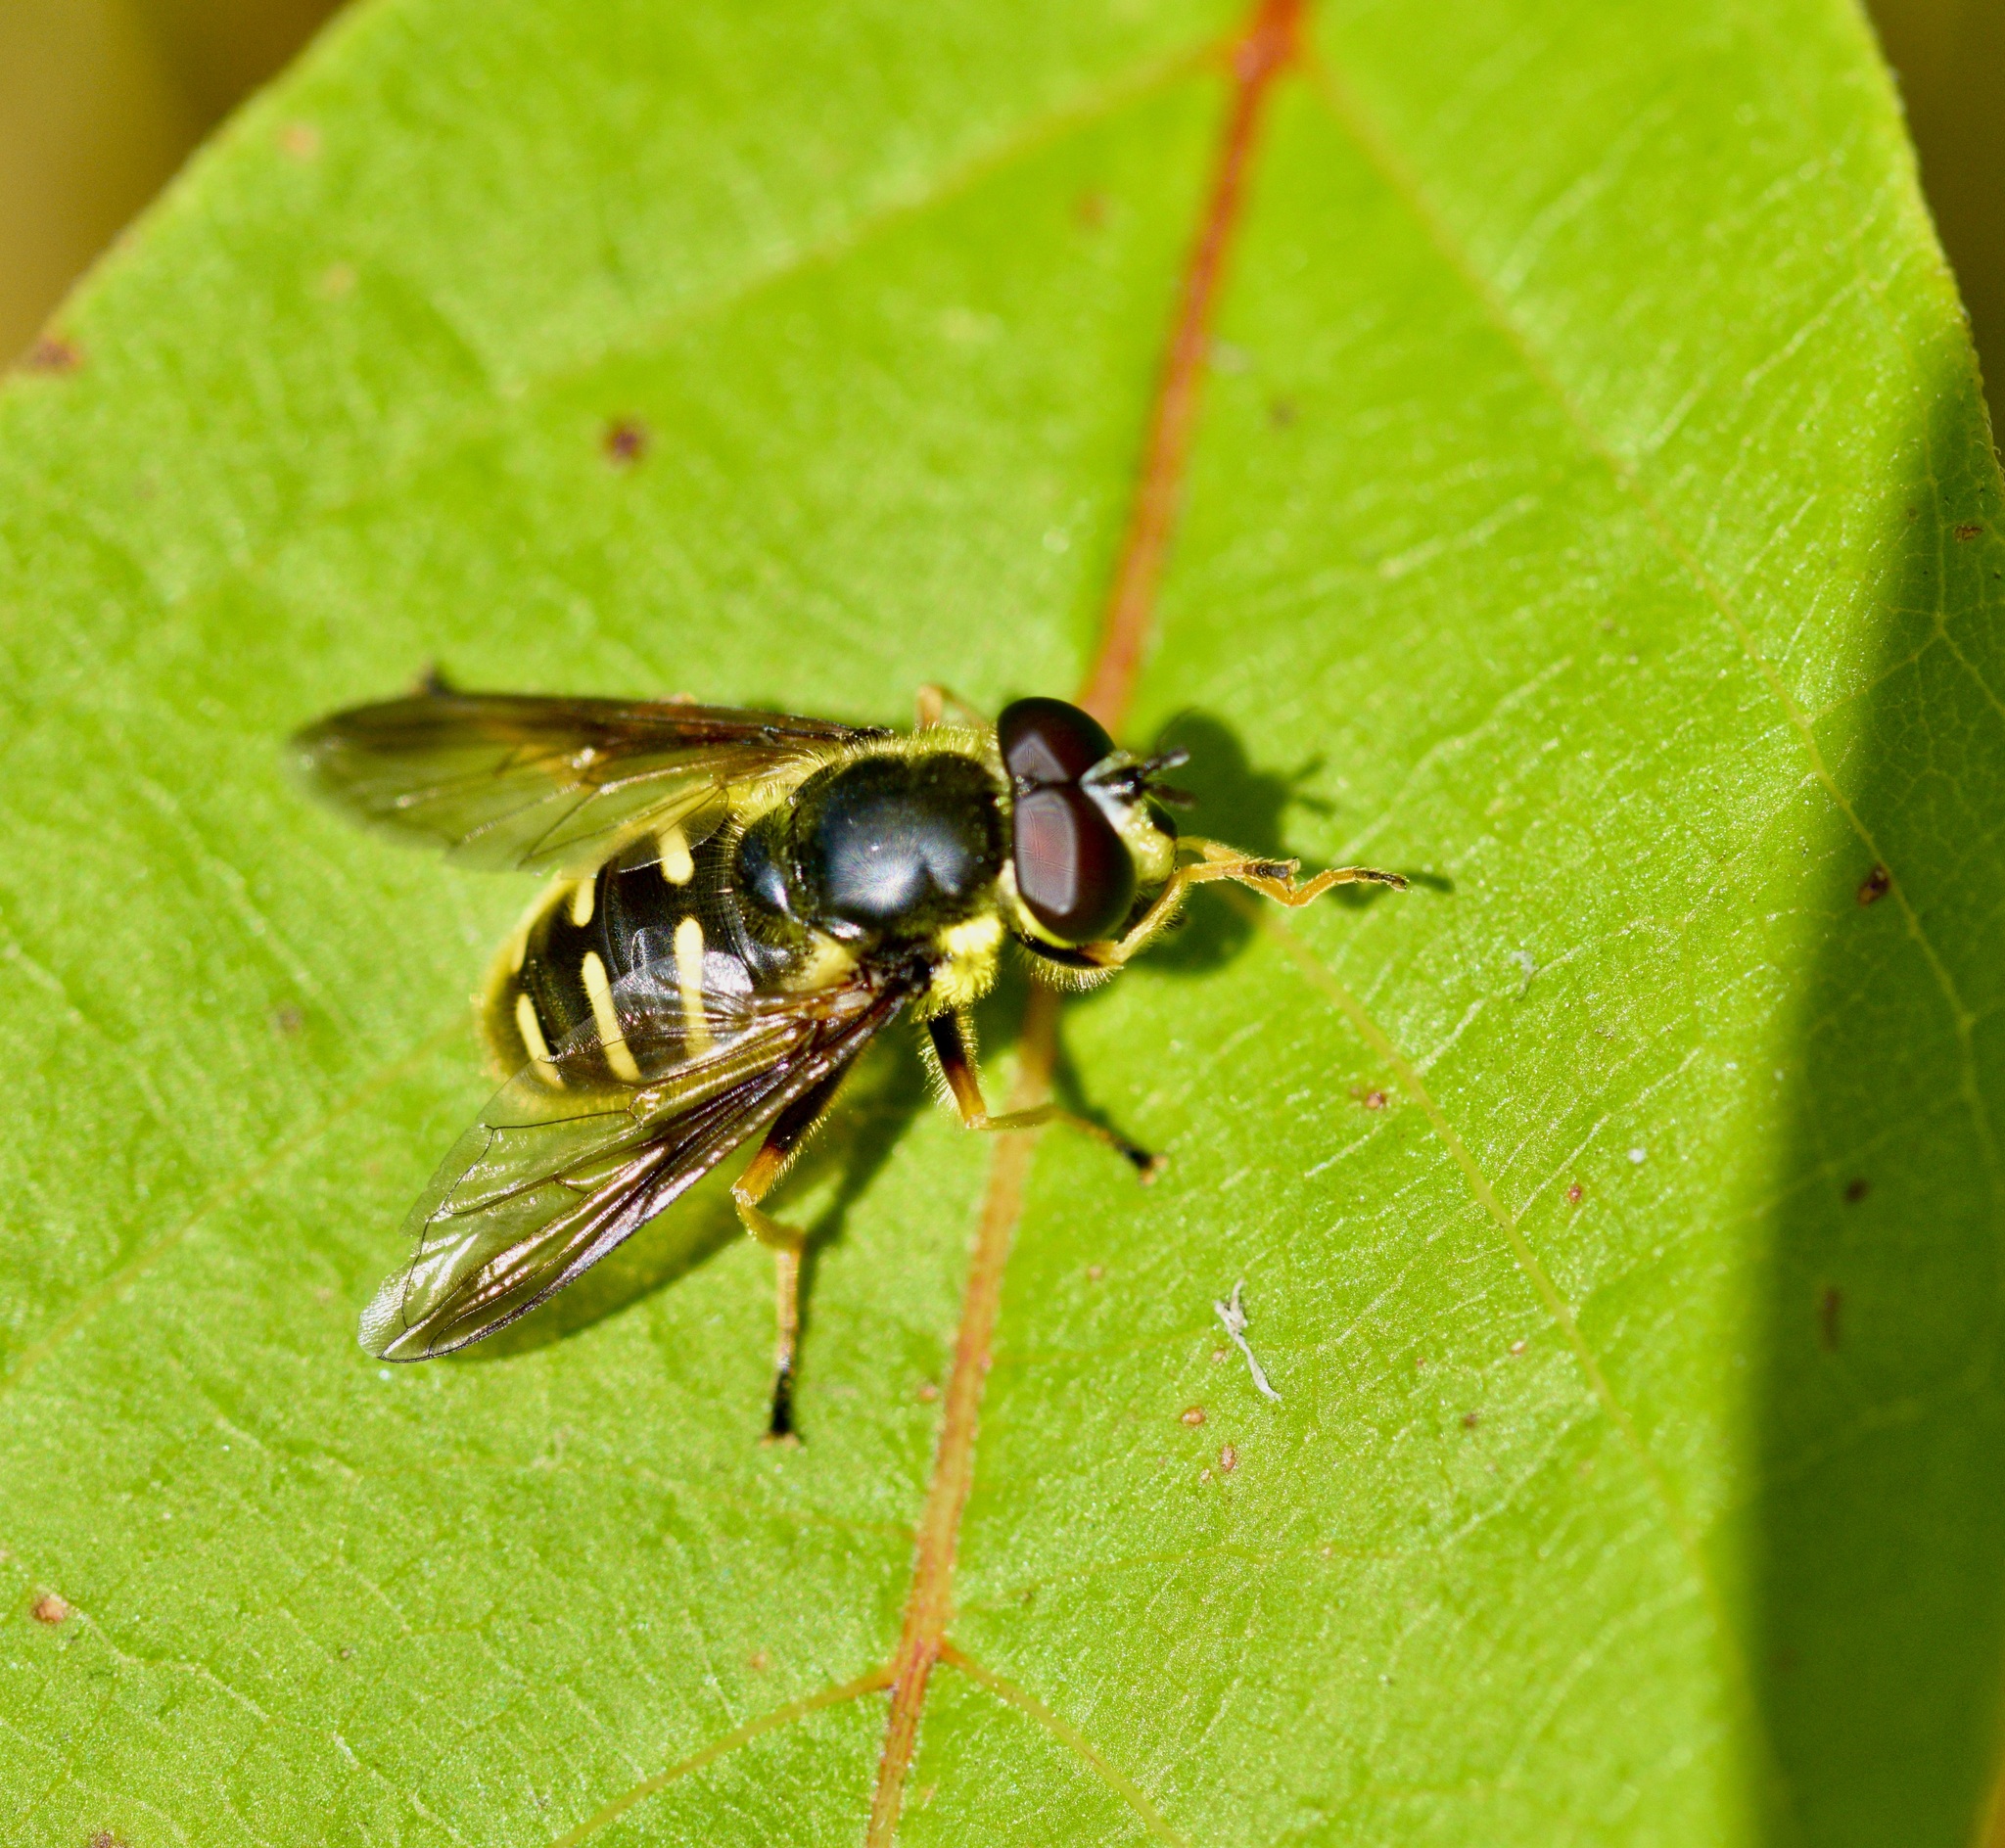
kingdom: Animalia
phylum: Arthropoda
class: Insecta
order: Diptera
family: Syrphidae
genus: Sericomyia
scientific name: Sericomyia chrysotoxoides
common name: Oblique-banded pond fly
